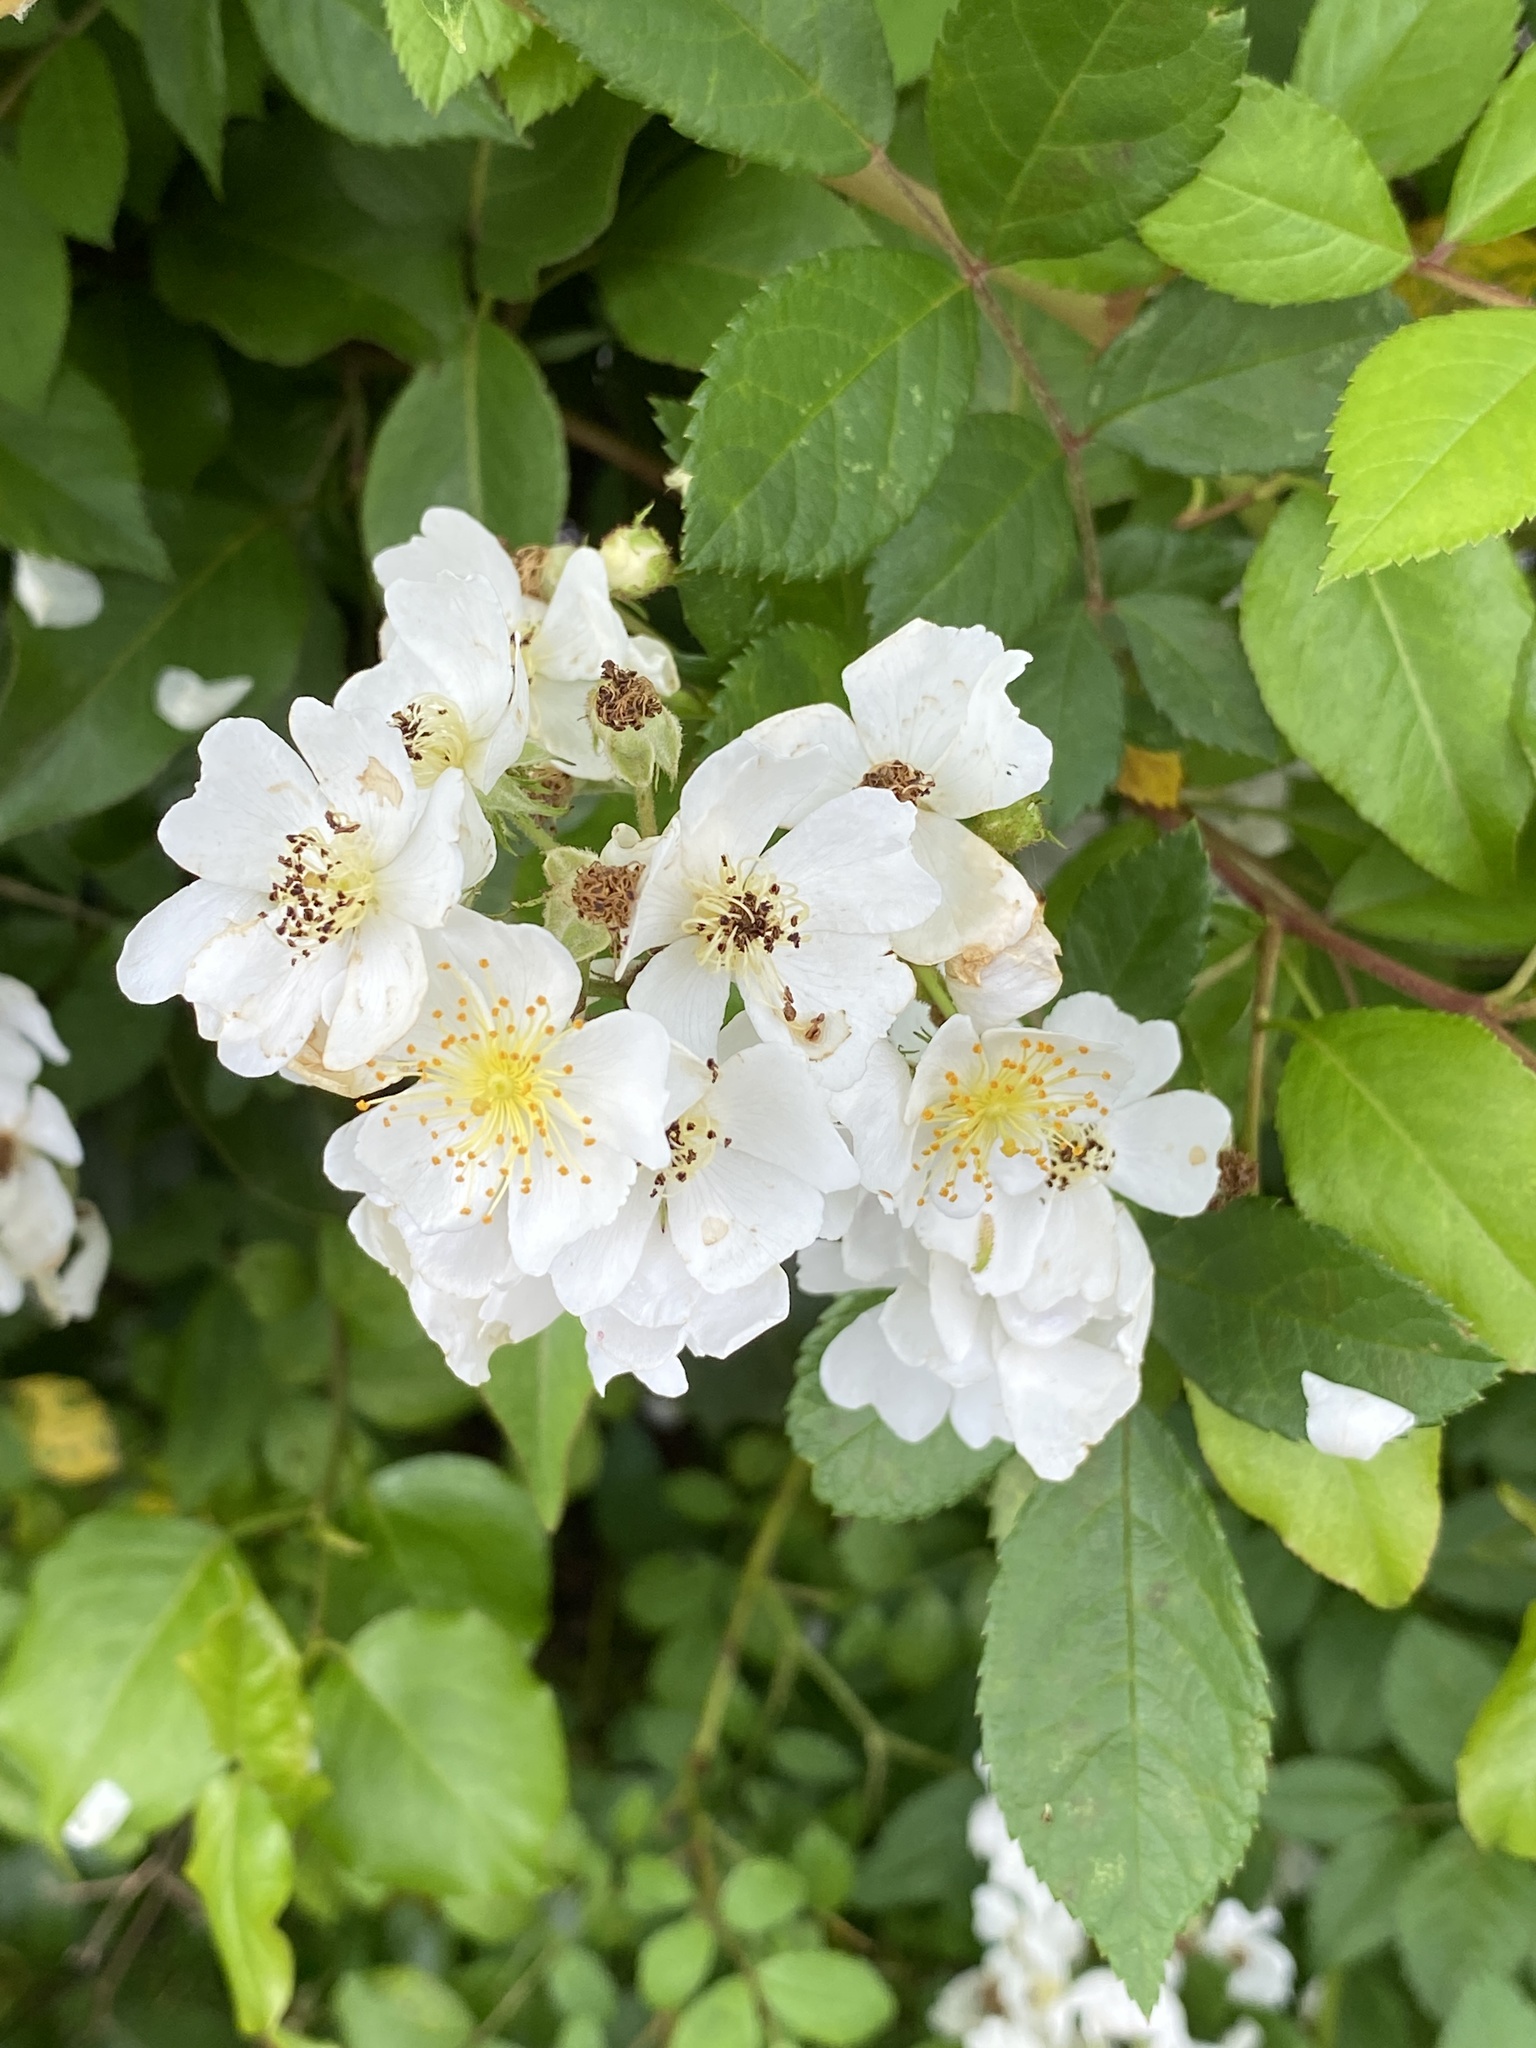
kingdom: Plantae
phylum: Tracheophyta
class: Magnoliopsida
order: Rosales
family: Rosaceae
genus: Rosa
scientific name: Rosa multiflora
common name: Multiflora rose
